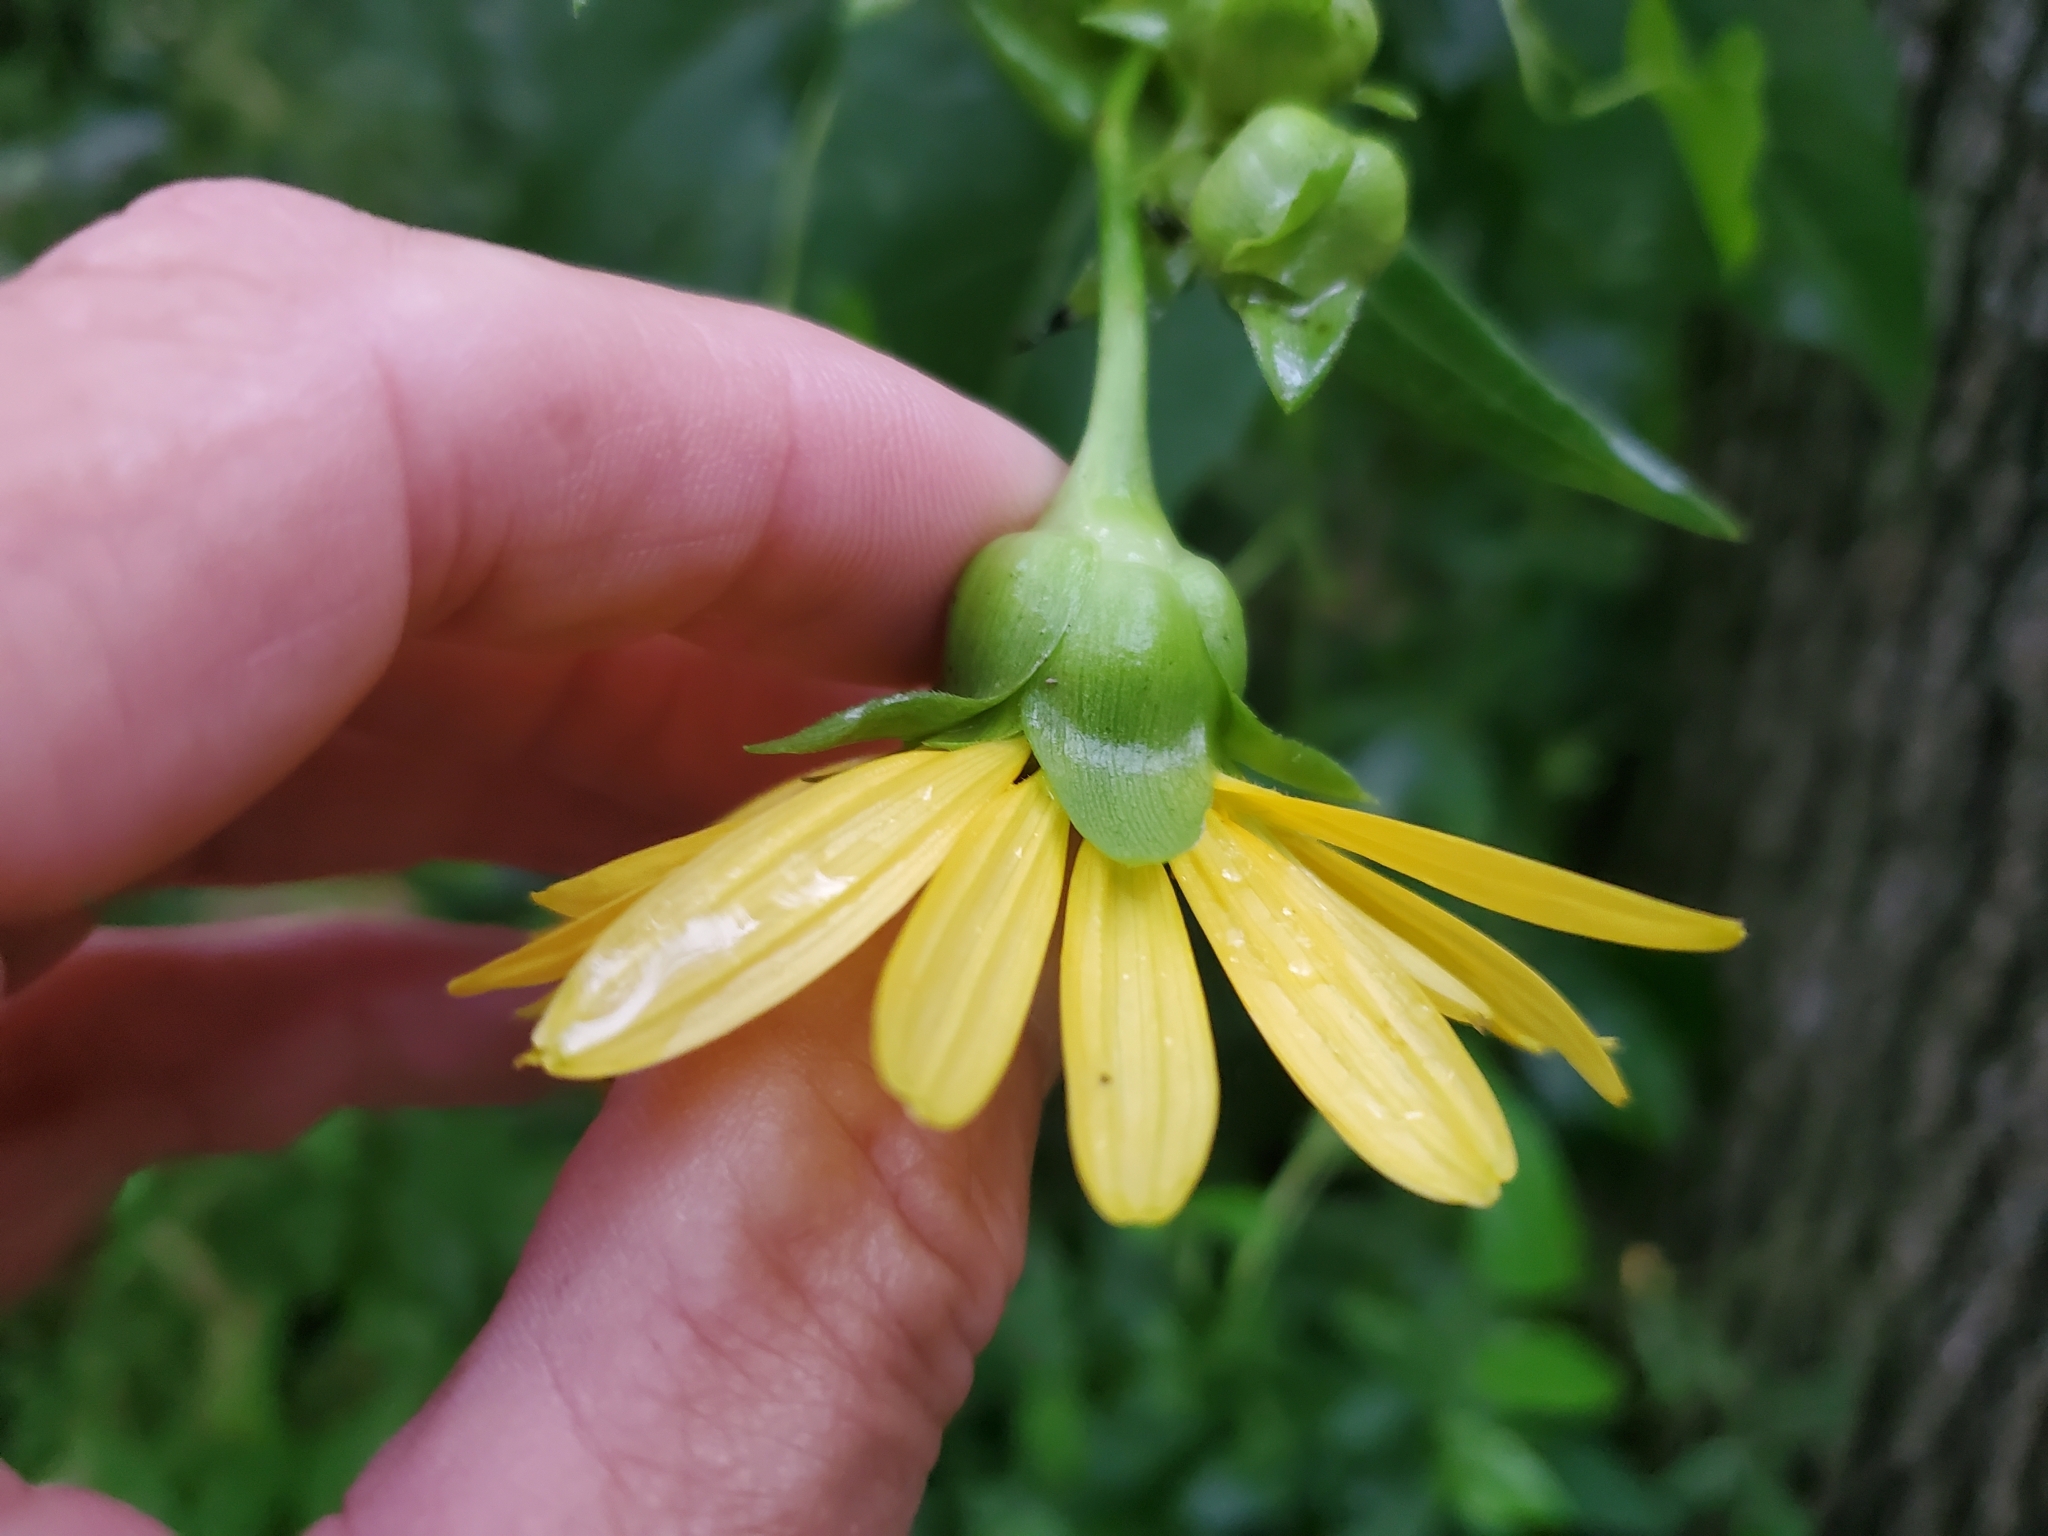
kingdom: Plantae
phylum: Tracheophyta
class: Magnoliopsida
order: Asterales
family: Asteraceae
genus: Silphium
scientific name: Silphium perfoliatum
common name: Cup-plant
